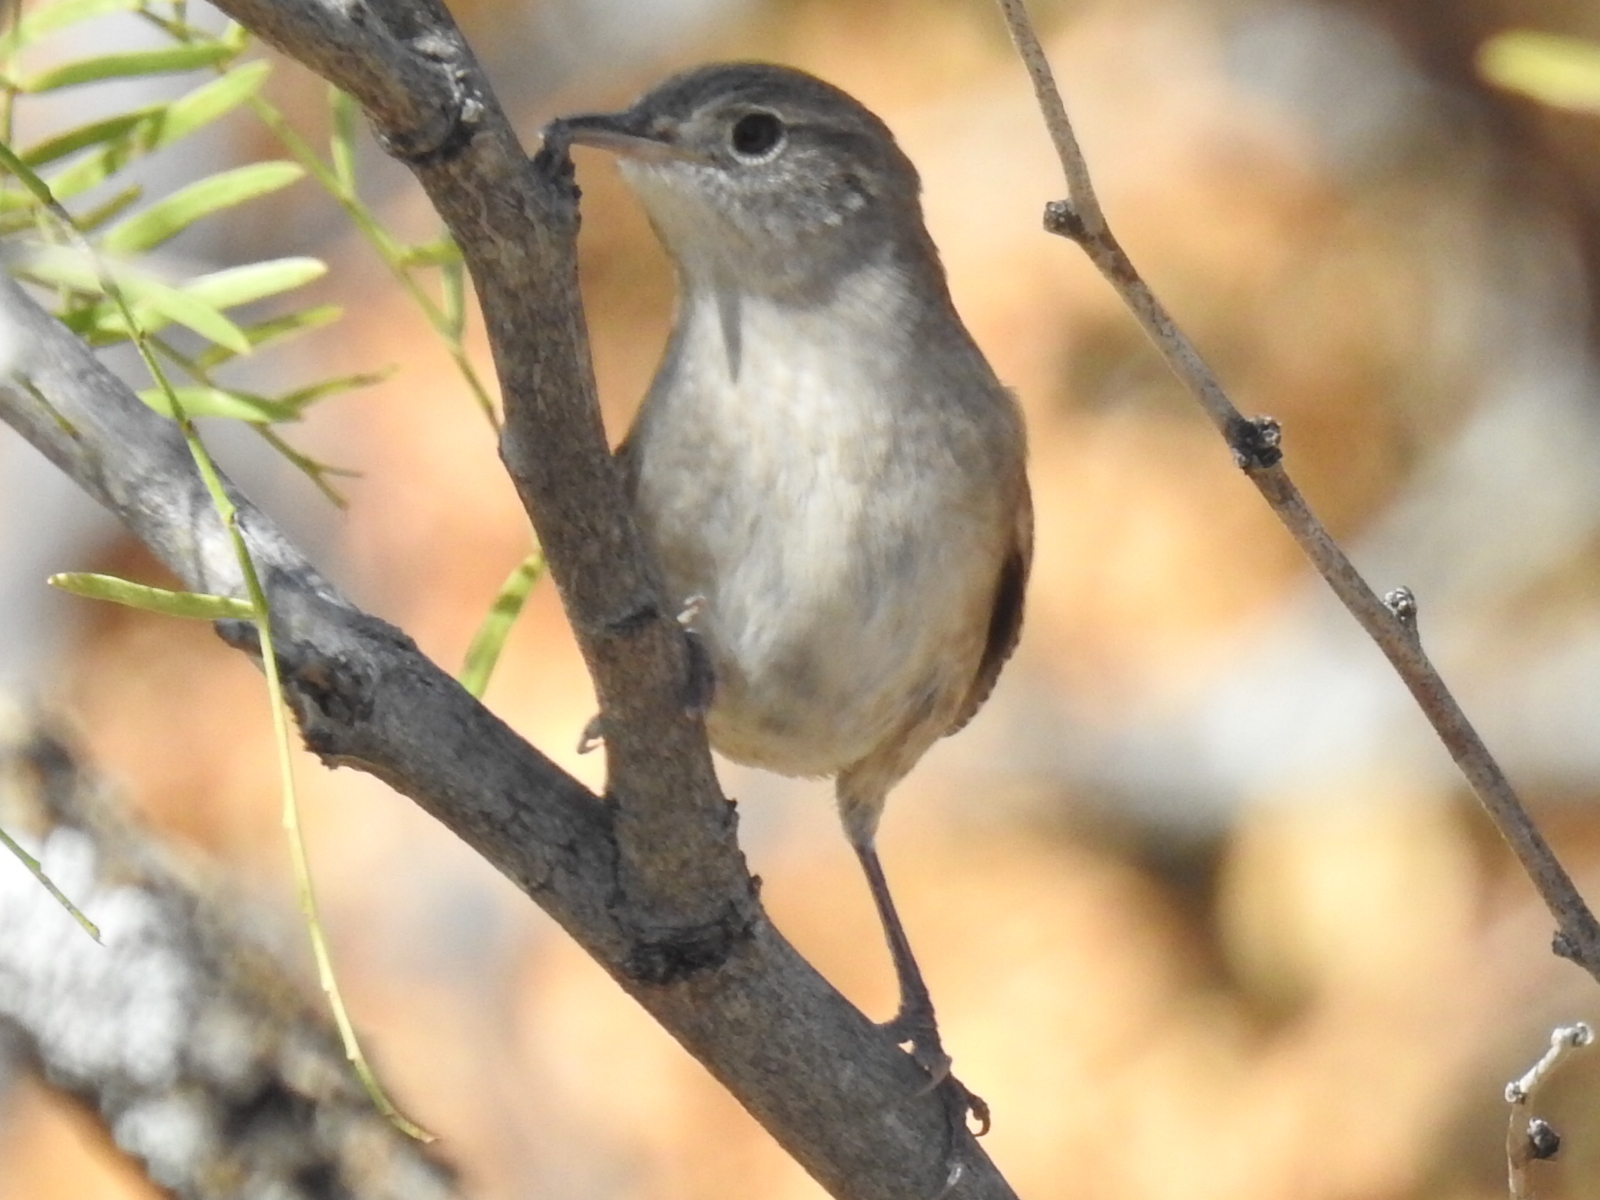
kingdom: Animalia
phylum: Chordata
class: Aves
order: Passeriformes
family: Troglodytidae
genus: Troglodytes
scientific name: Troglodytes aedon
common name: House wren
